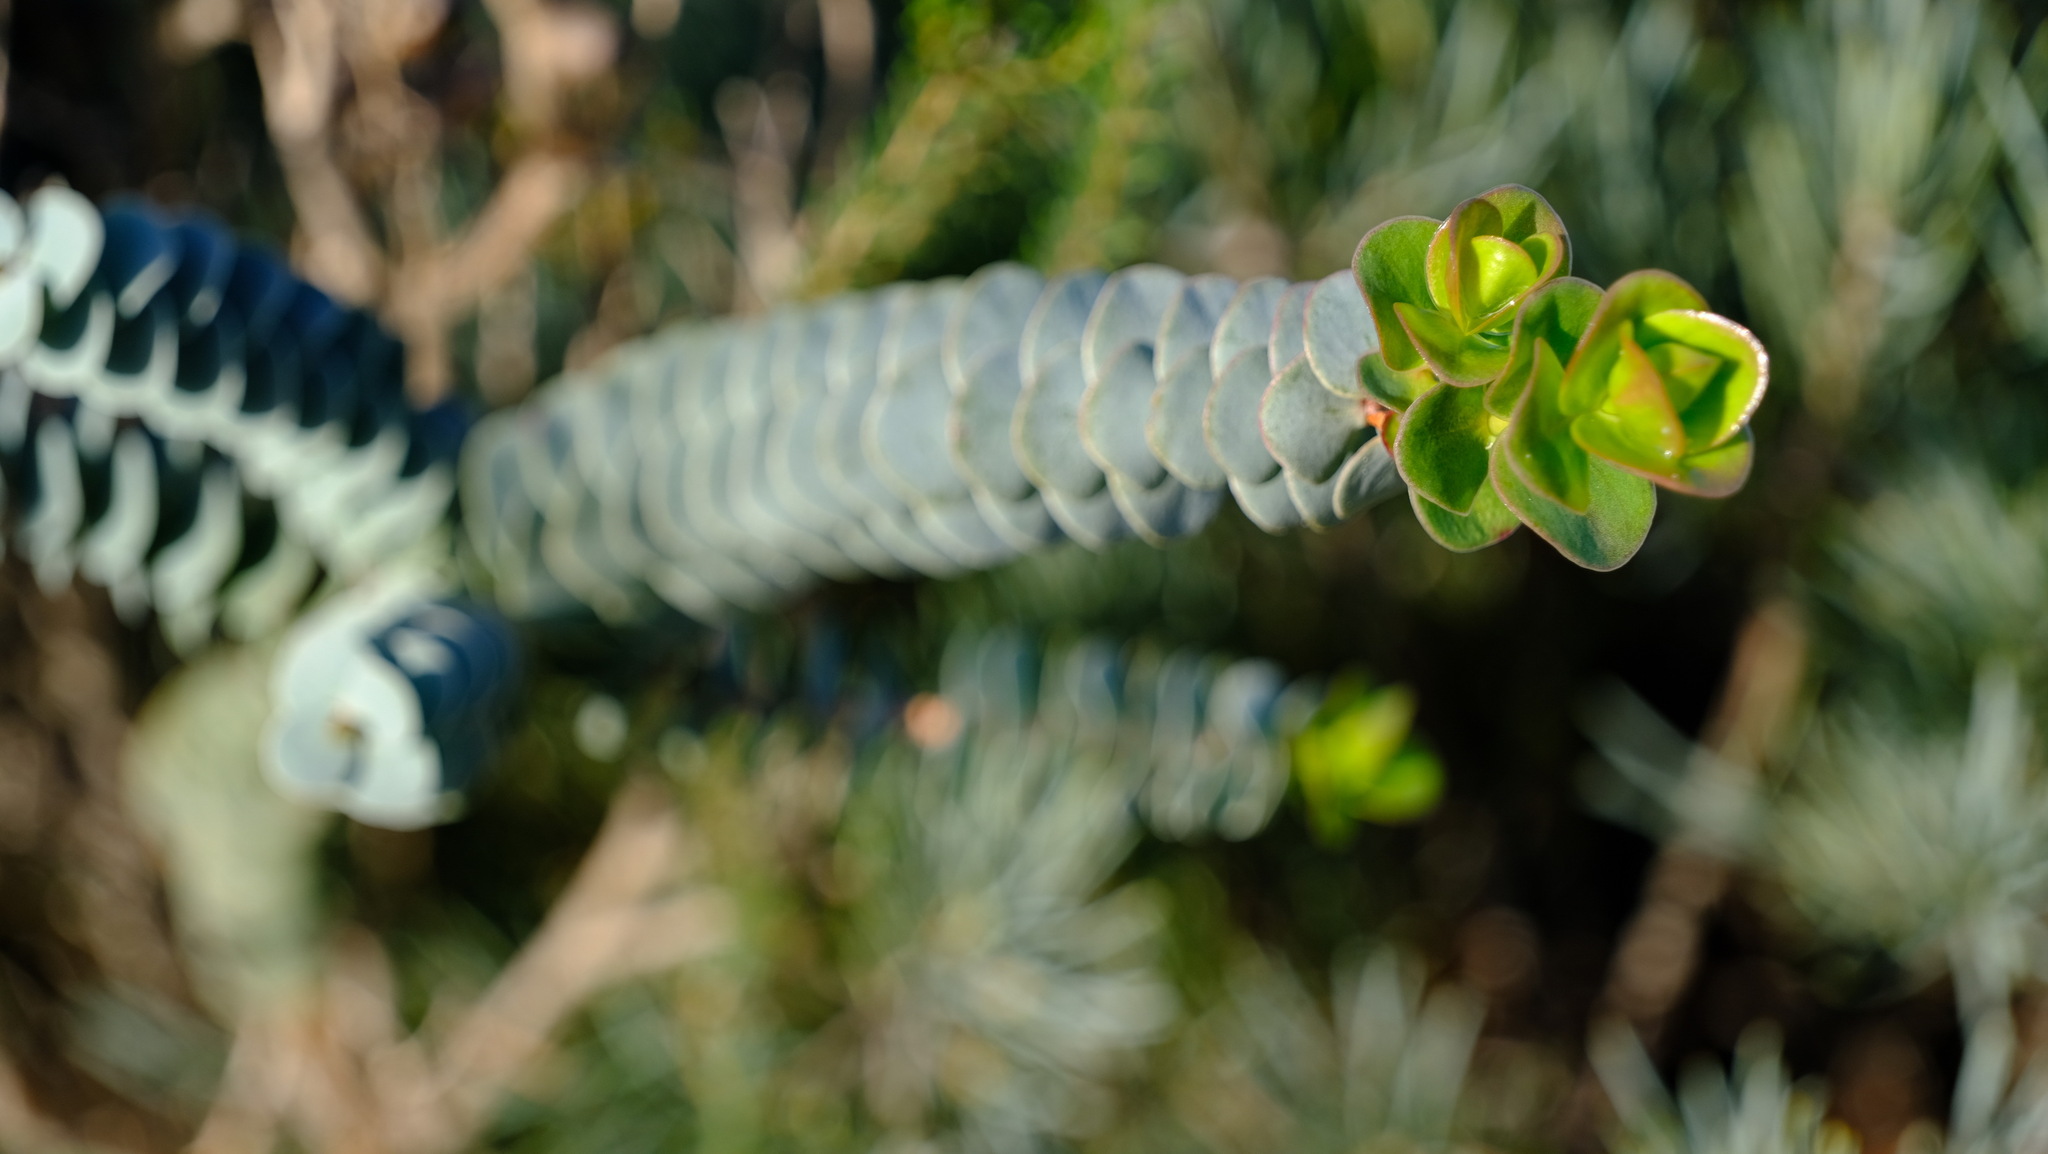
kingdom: Plantae
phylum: Tracheophyta
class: Magnoliopsida
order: Myrtales
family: Myrtaceae
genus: Verticordia
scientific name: Verticordia grandis
